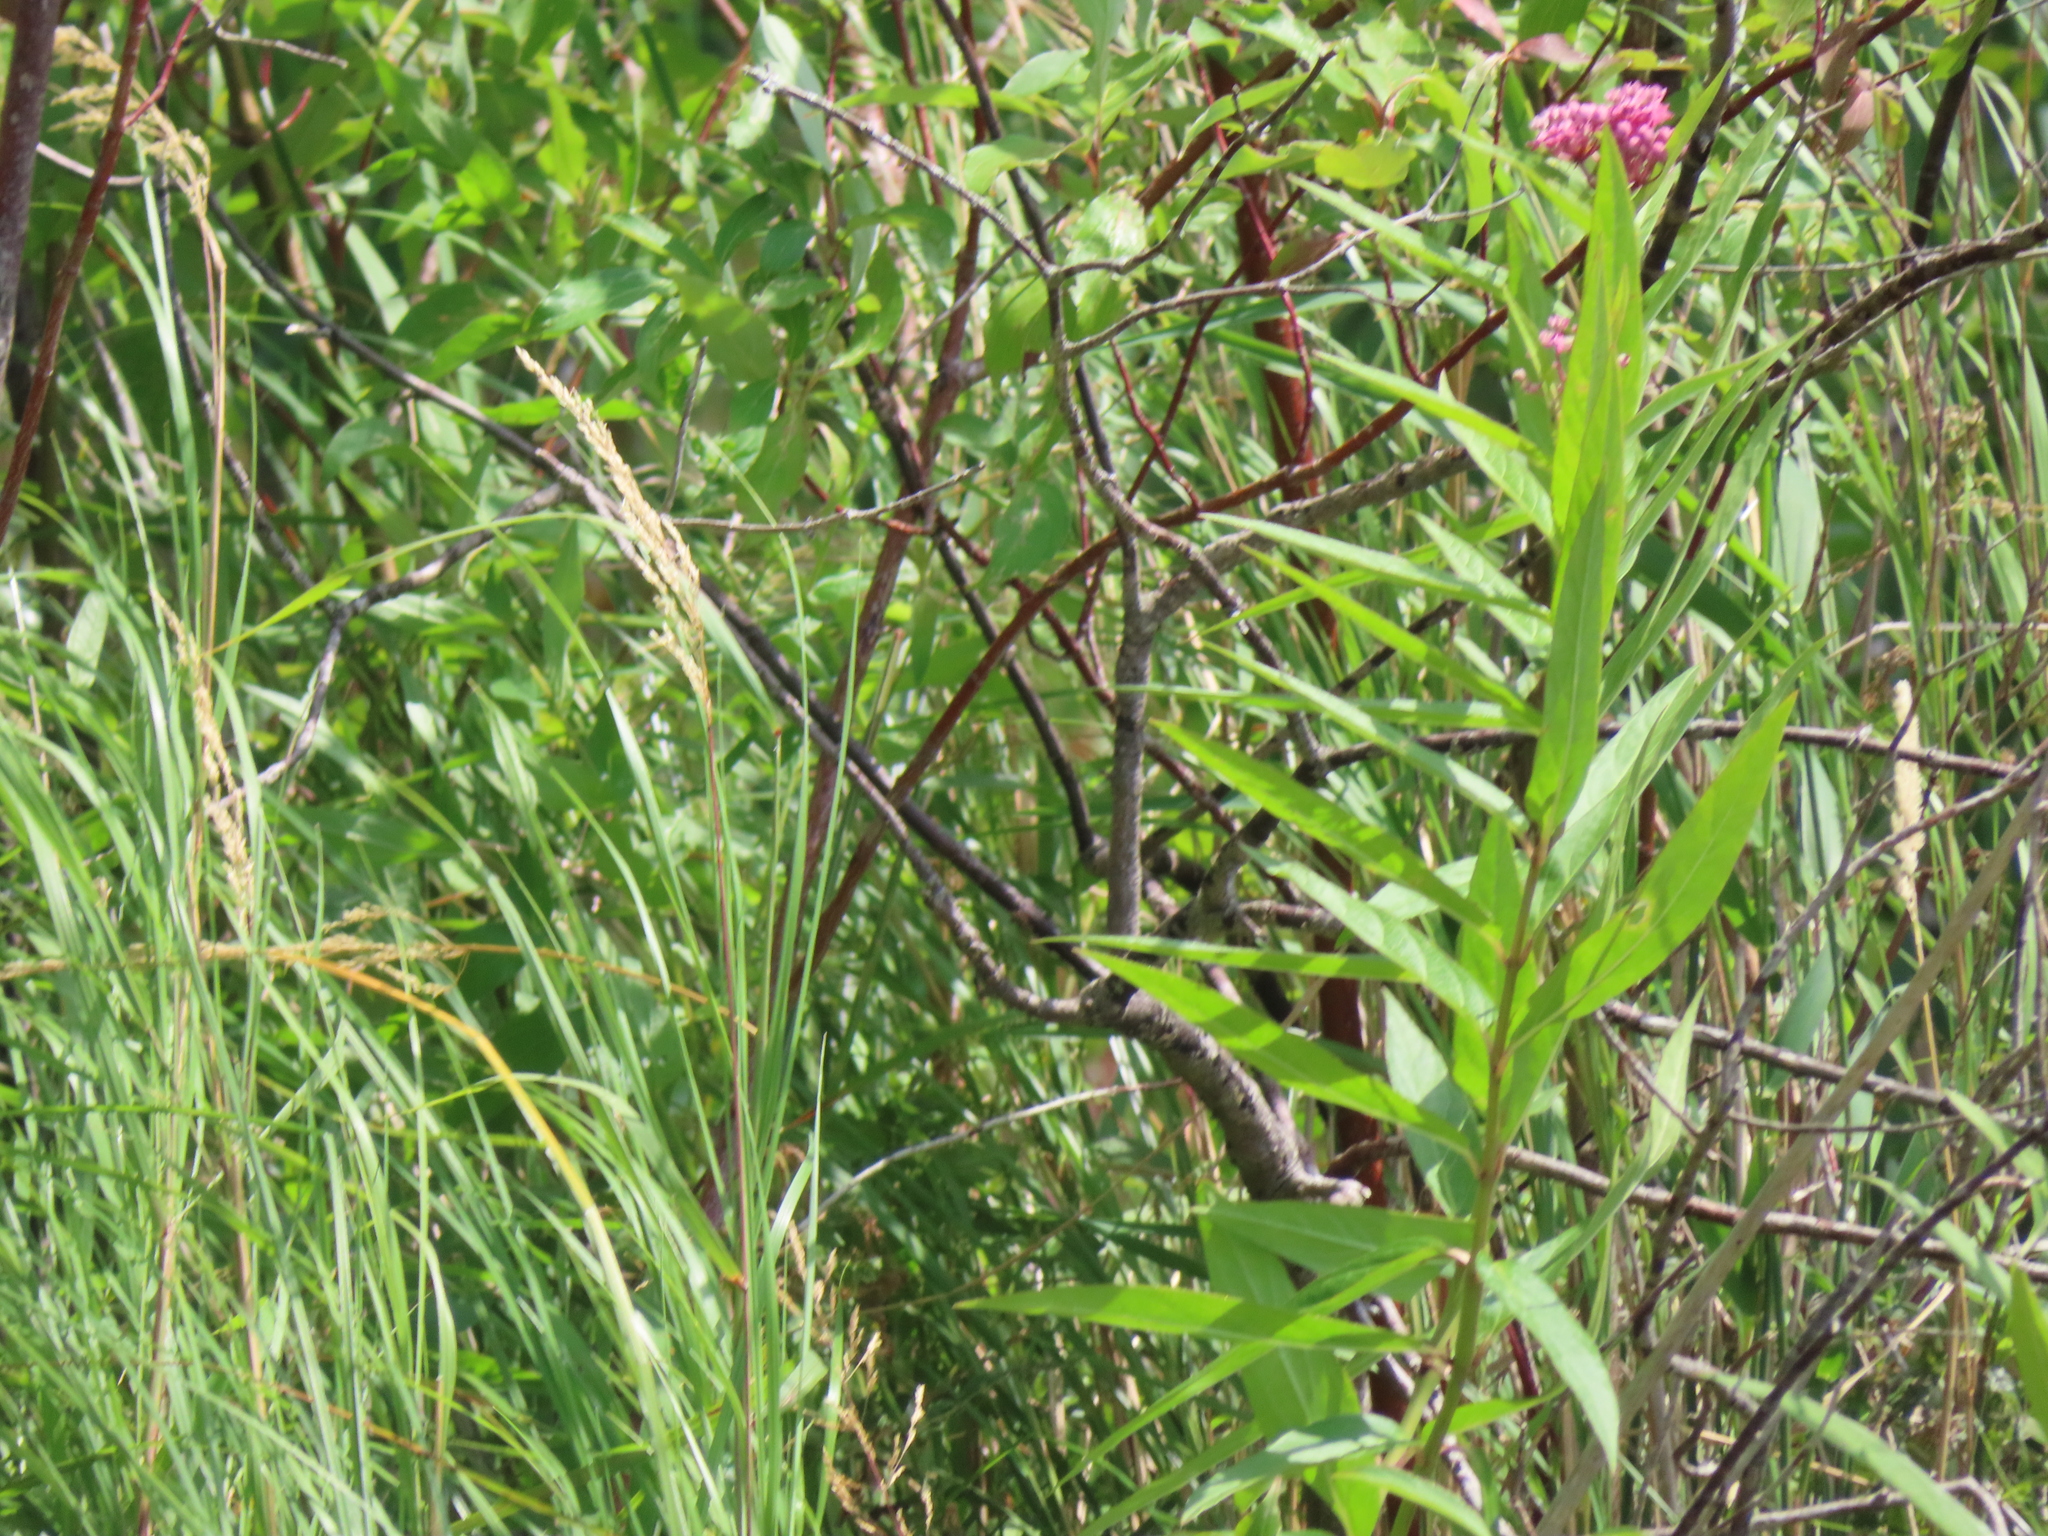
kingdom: Plantae
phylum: Tracheophyta
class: Magnoliopsida
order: Gentianales
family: Apocynaceae
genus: Asclepias
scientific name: Asclepias incarnata
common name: Swamp milkweed
